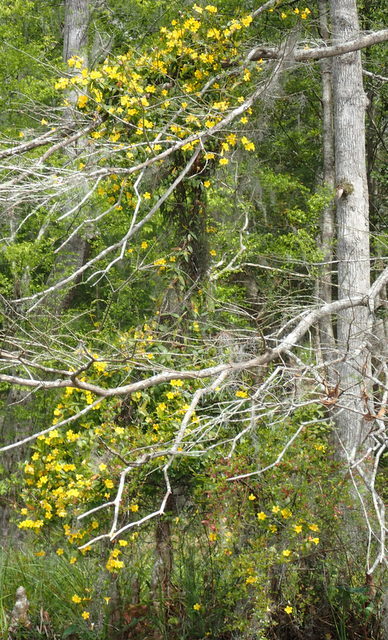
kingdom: Plantae
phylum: Tracheophyta
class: Magnoliopsida
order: Gentianales
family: Gelsemiaceae
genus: Gelsemium
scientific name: Gelsemium sempervirens
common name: Carolina-jasmine
